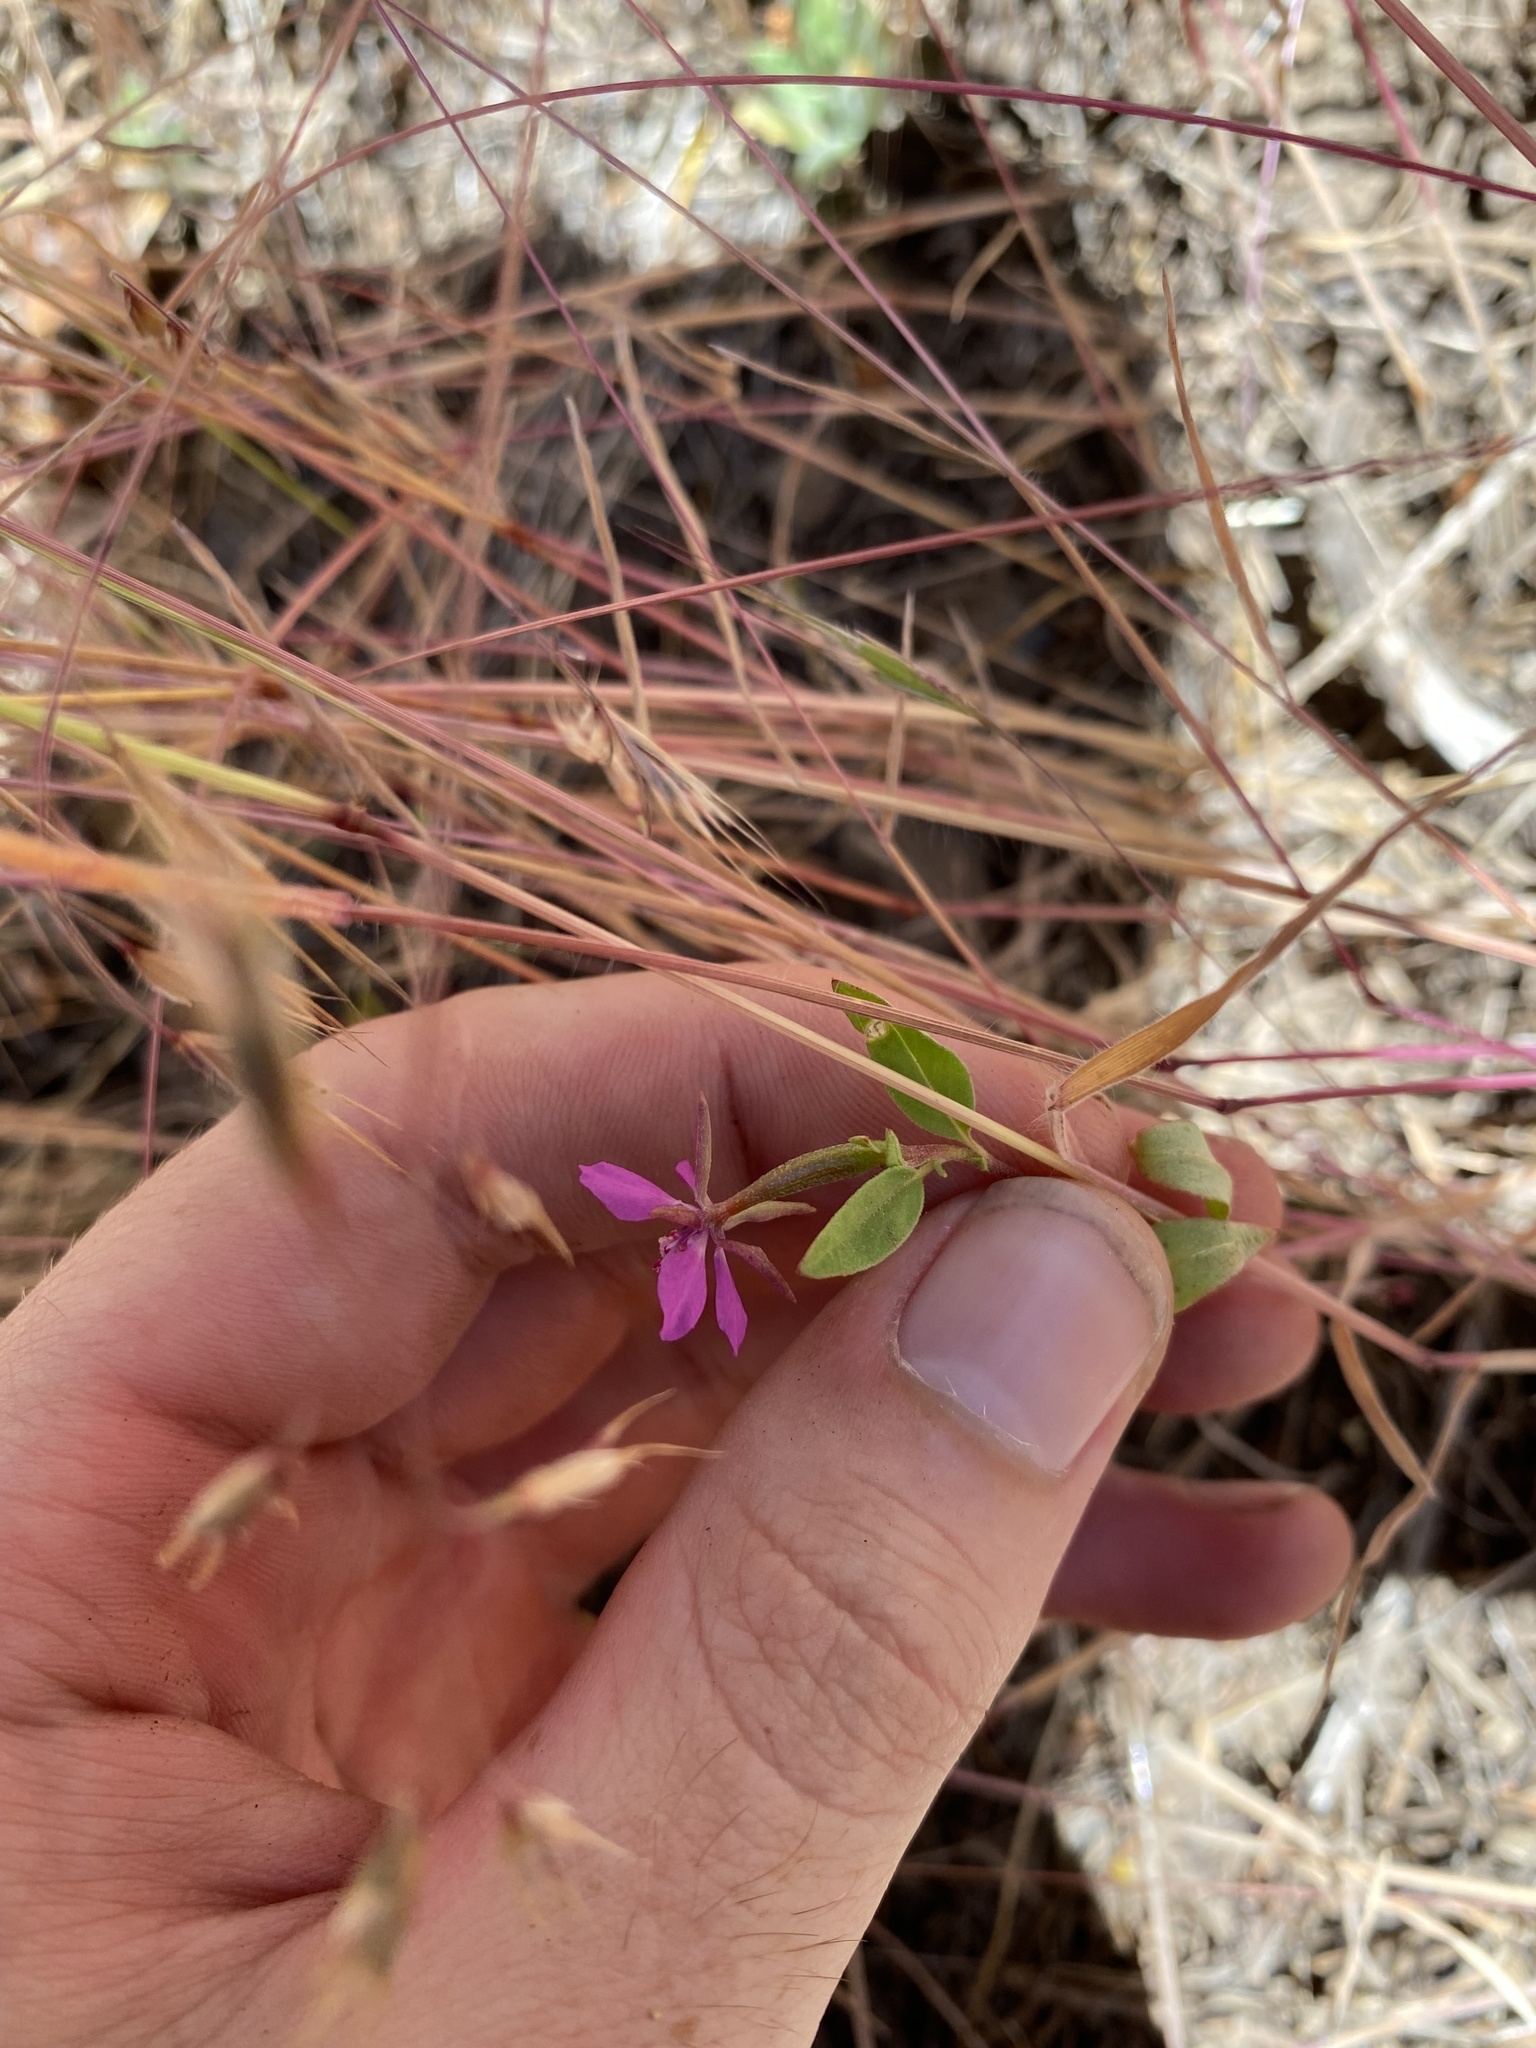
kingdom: Plantae
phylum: Tracheophyta
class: Magnoliopsida
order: Myrtales
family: Onagraceae
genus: Clarkia
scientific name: Clarkia rhomboidea
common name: Broadleaf clarkia
